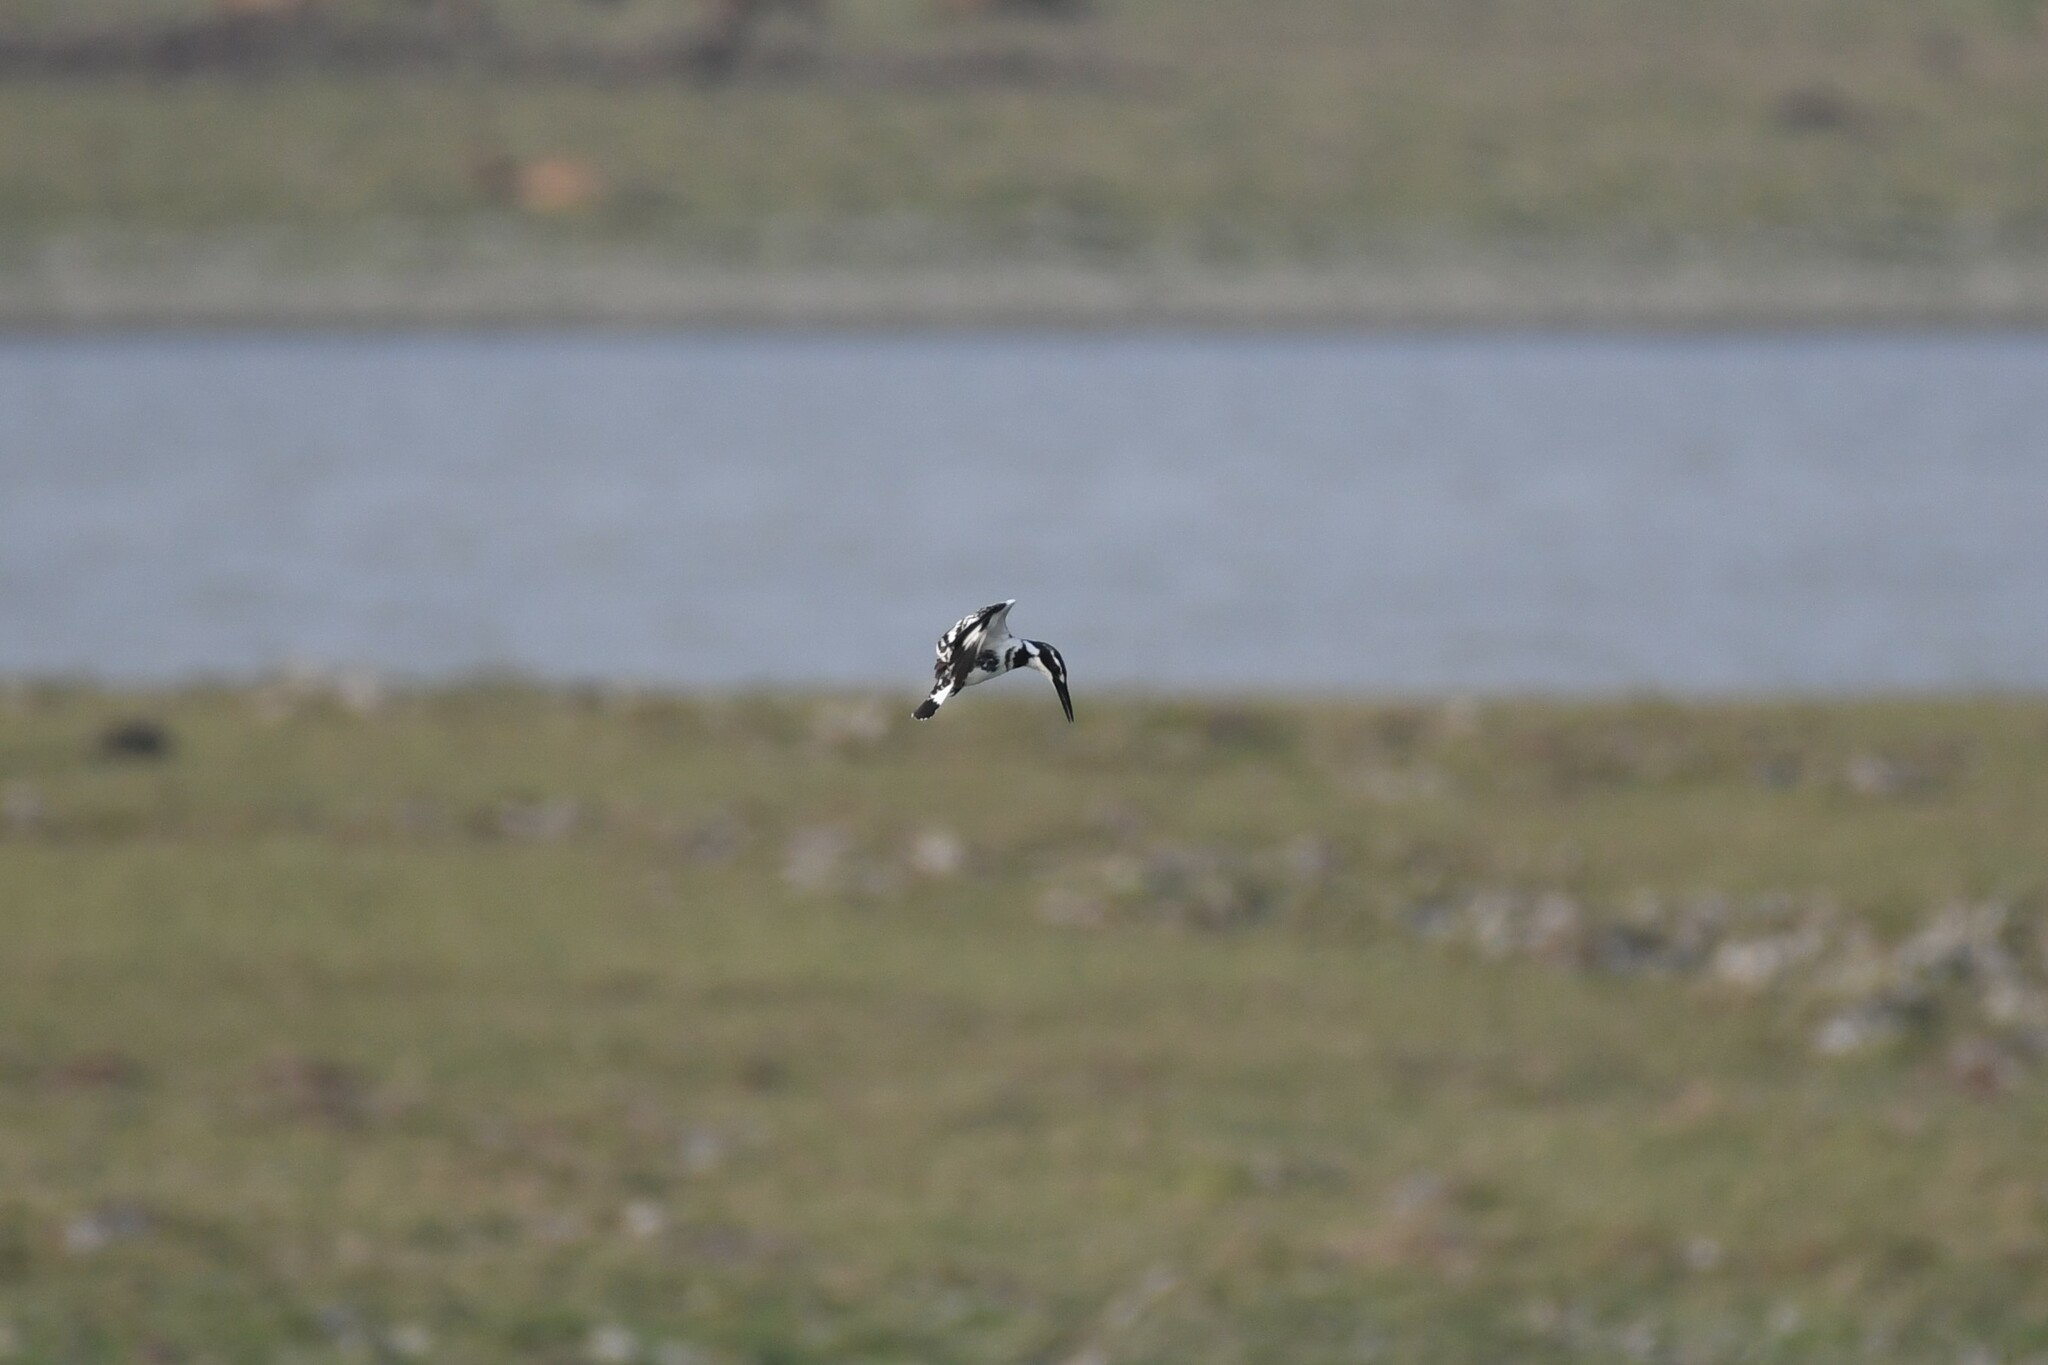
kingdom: Animalia
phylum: Chordata
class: Aves
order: Coraciiformes
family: Alcedinidae
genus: Ceryle
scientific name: Ceryle rudis
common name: Pied kingfisher
